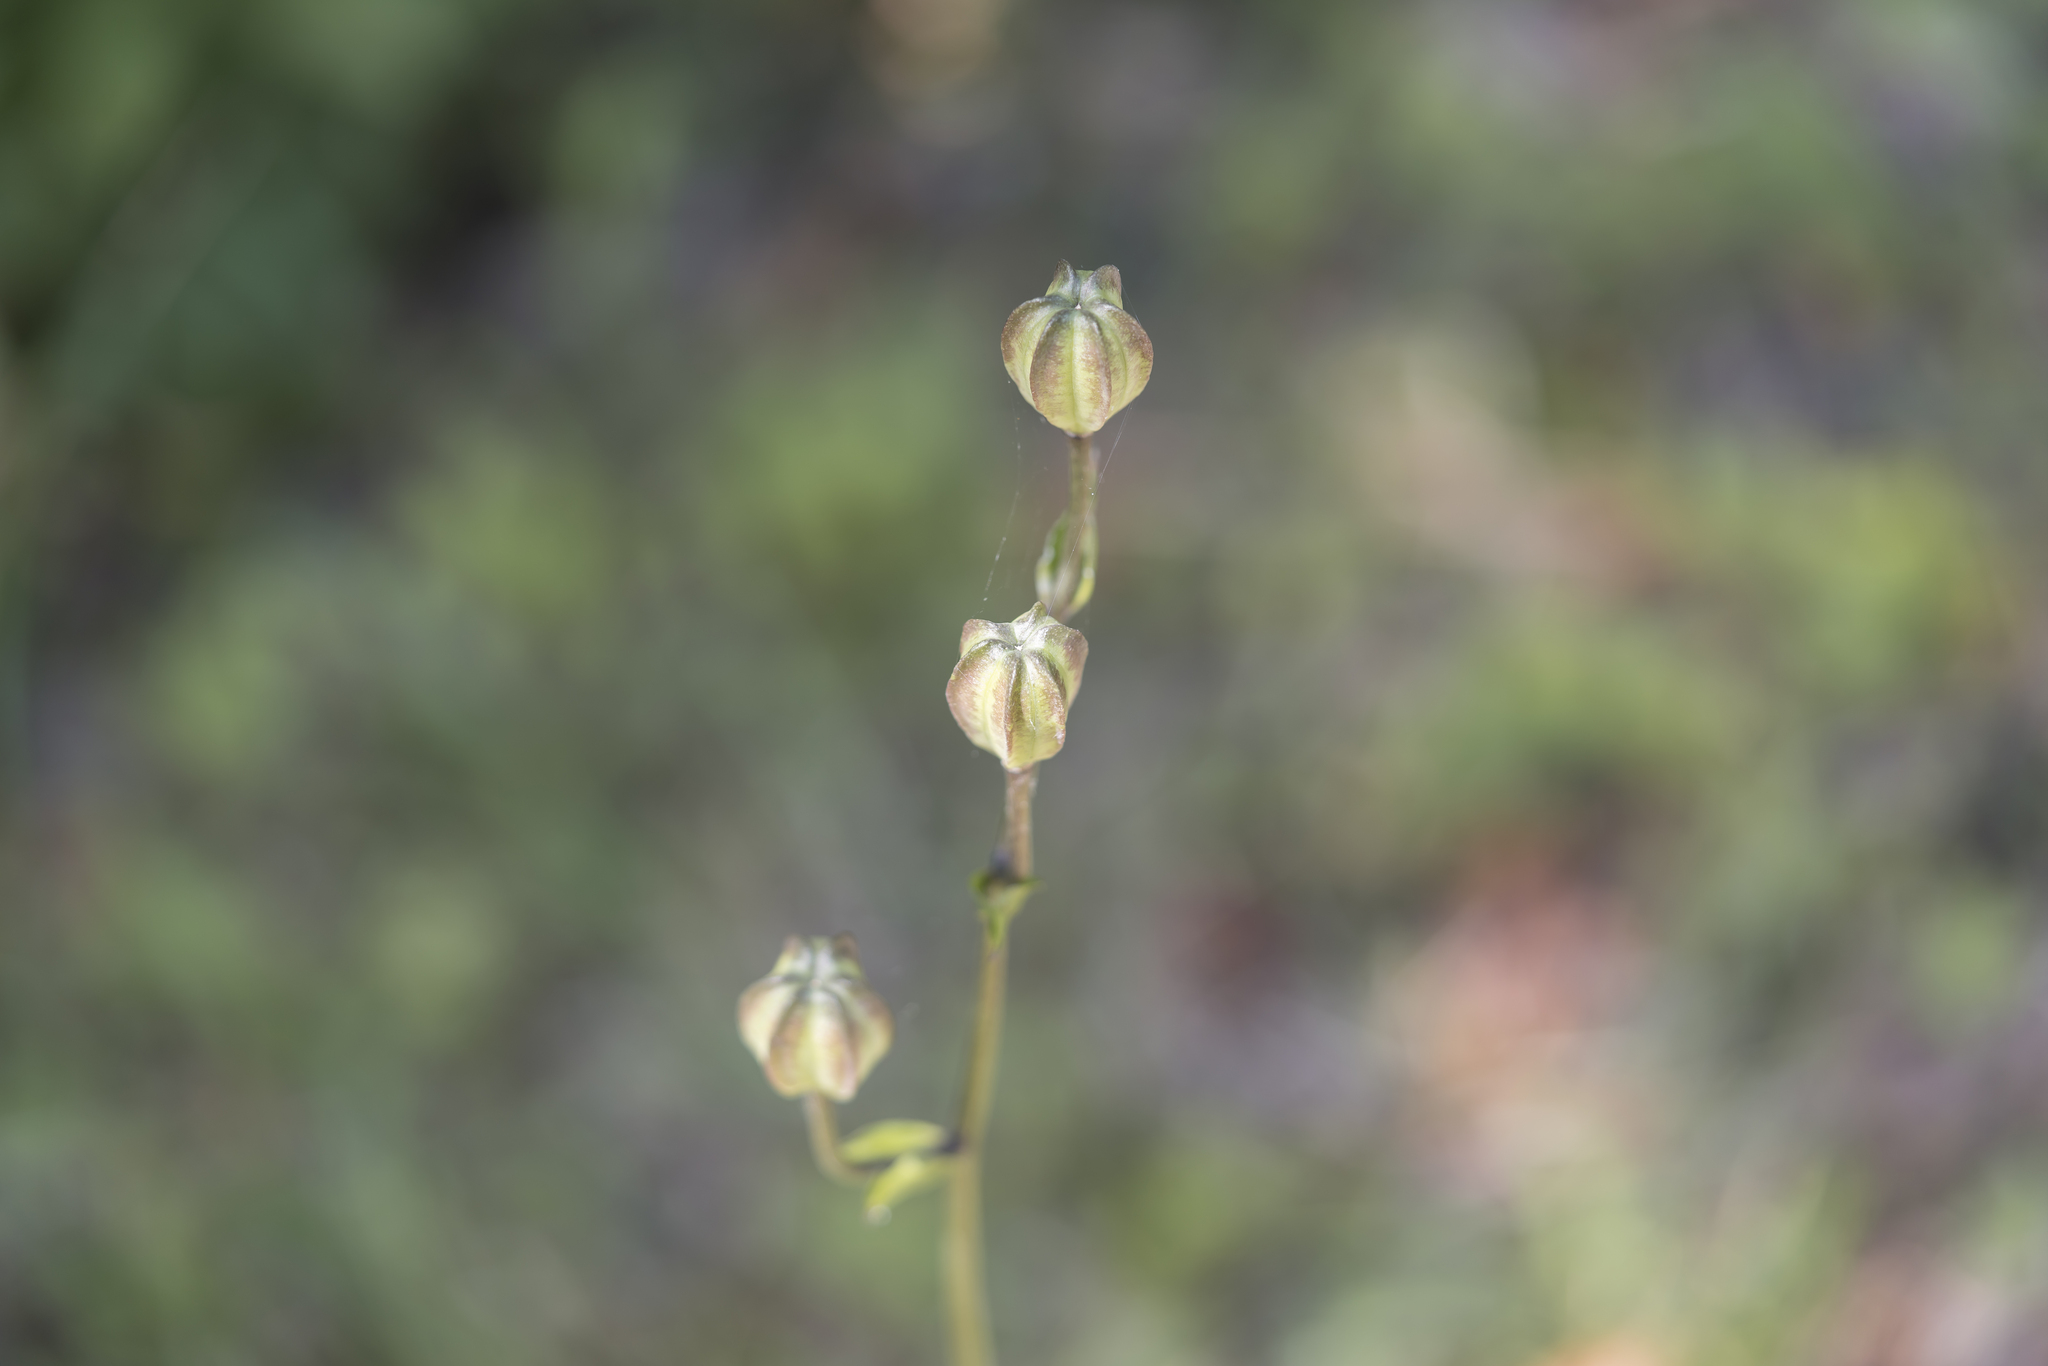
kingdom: Plantae
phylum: Tracheophyta
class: Liliopsida
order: Liliales
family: Liliaceae
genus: Lilium
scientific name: Lilium martagon
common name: Martagon lily
